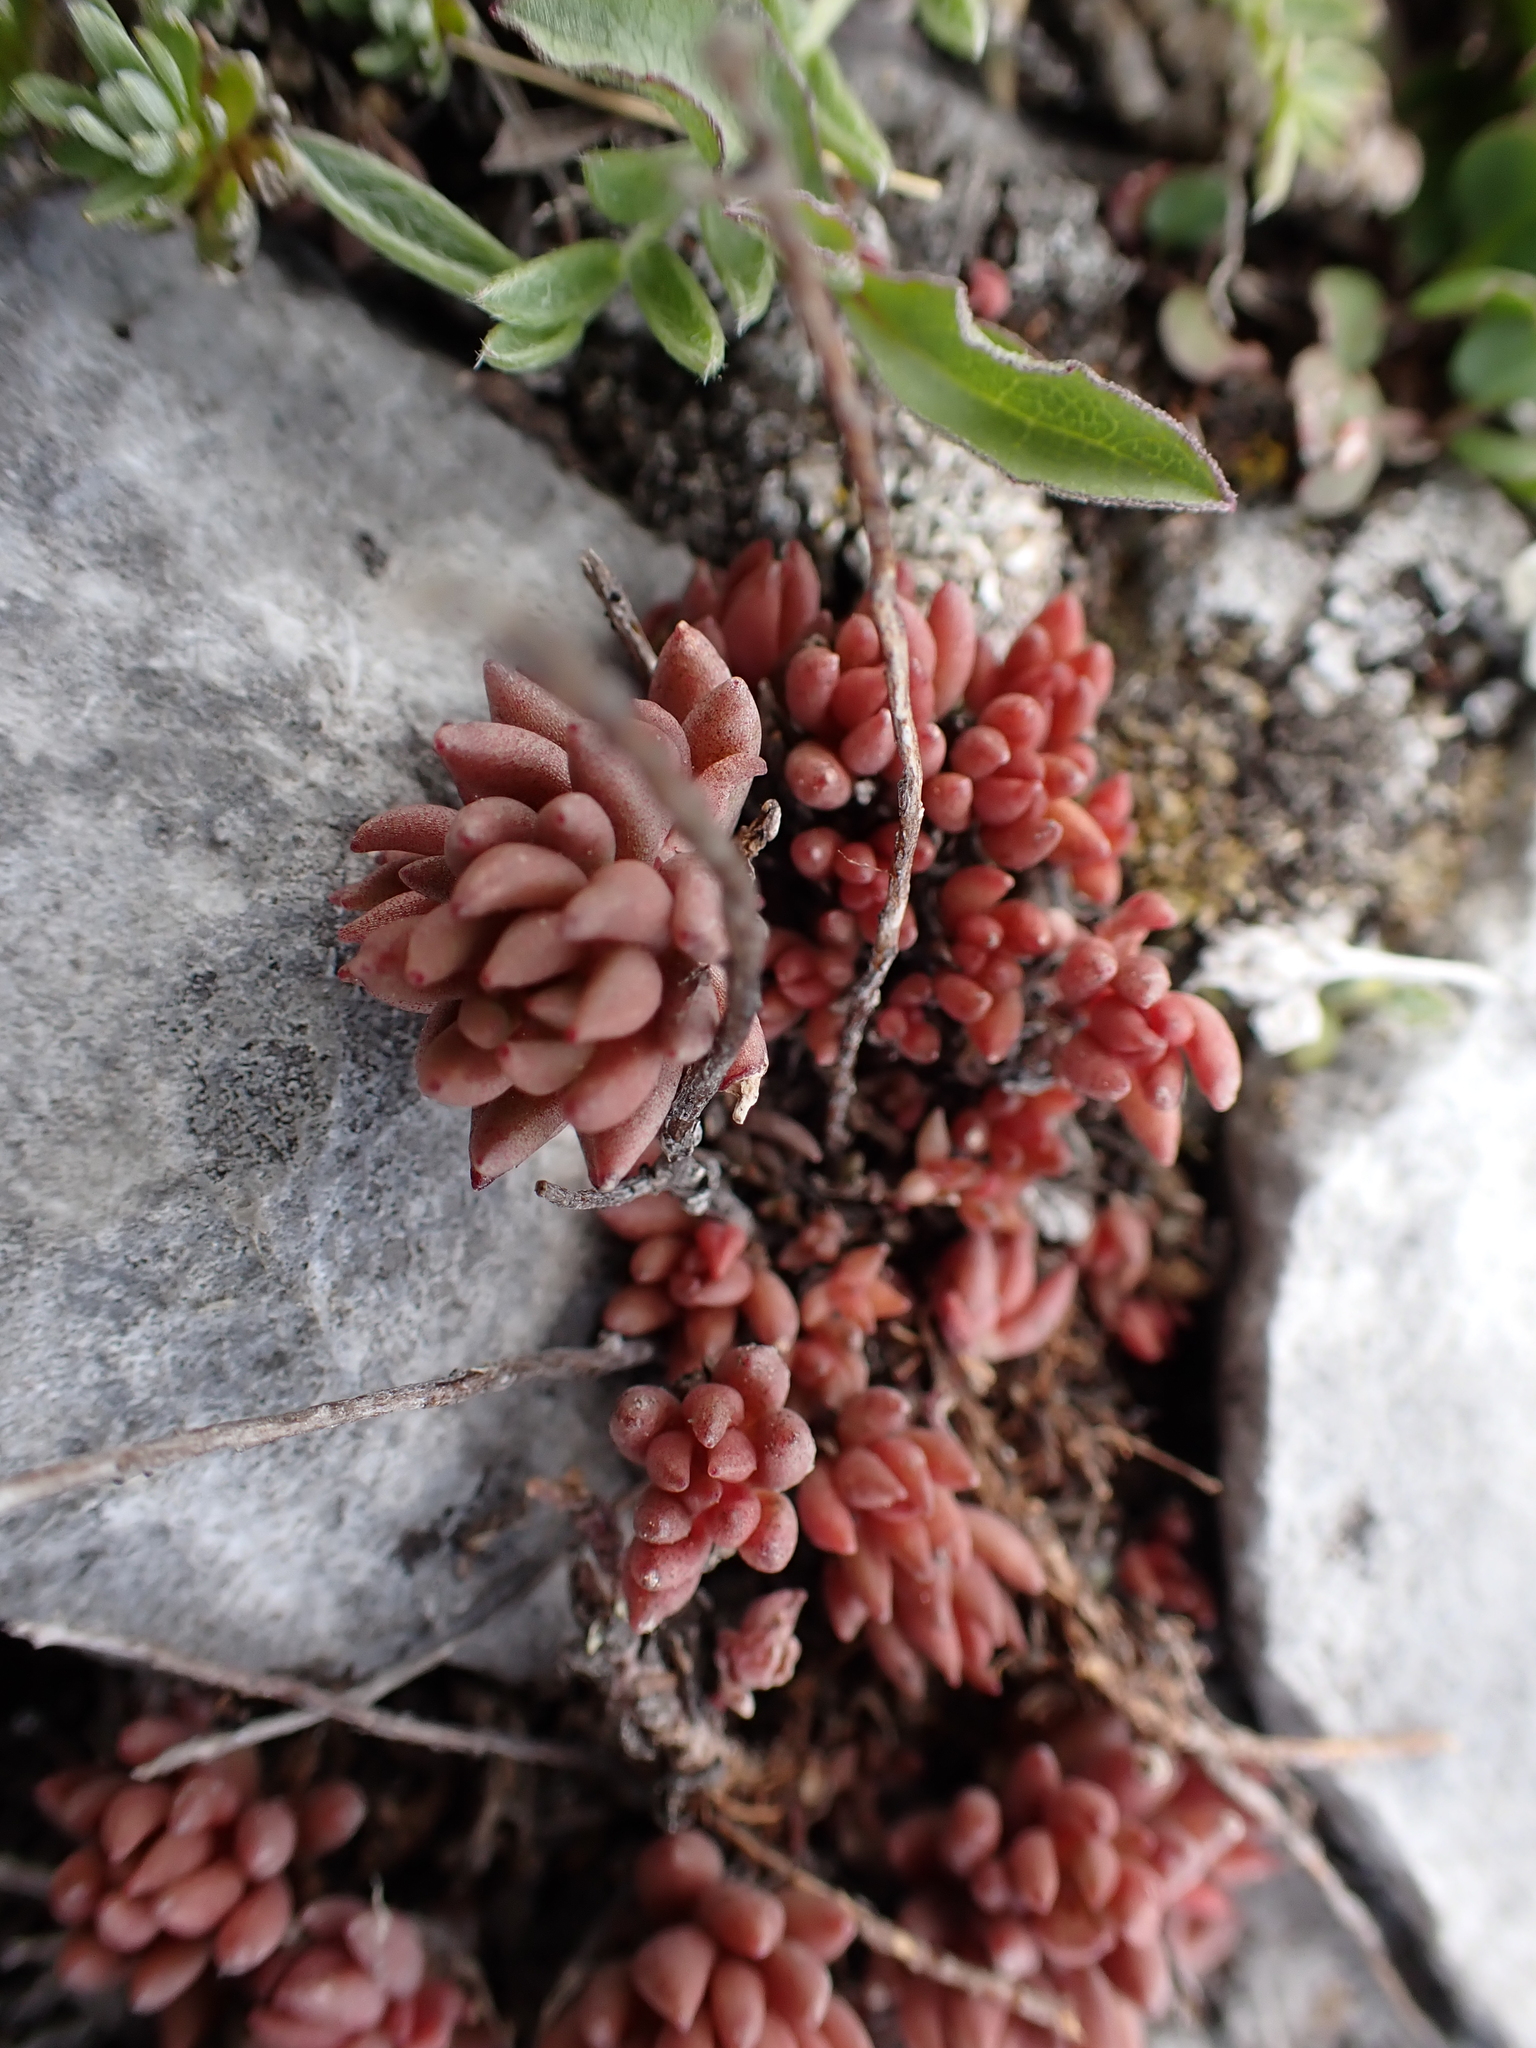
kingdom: Plantae
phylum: Tracheophyta
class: Magnoliopsida
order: Saxifragales
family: Crassulaceae
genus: Sedum
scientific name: Sedum lanceolatum
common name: Common stonecrop
